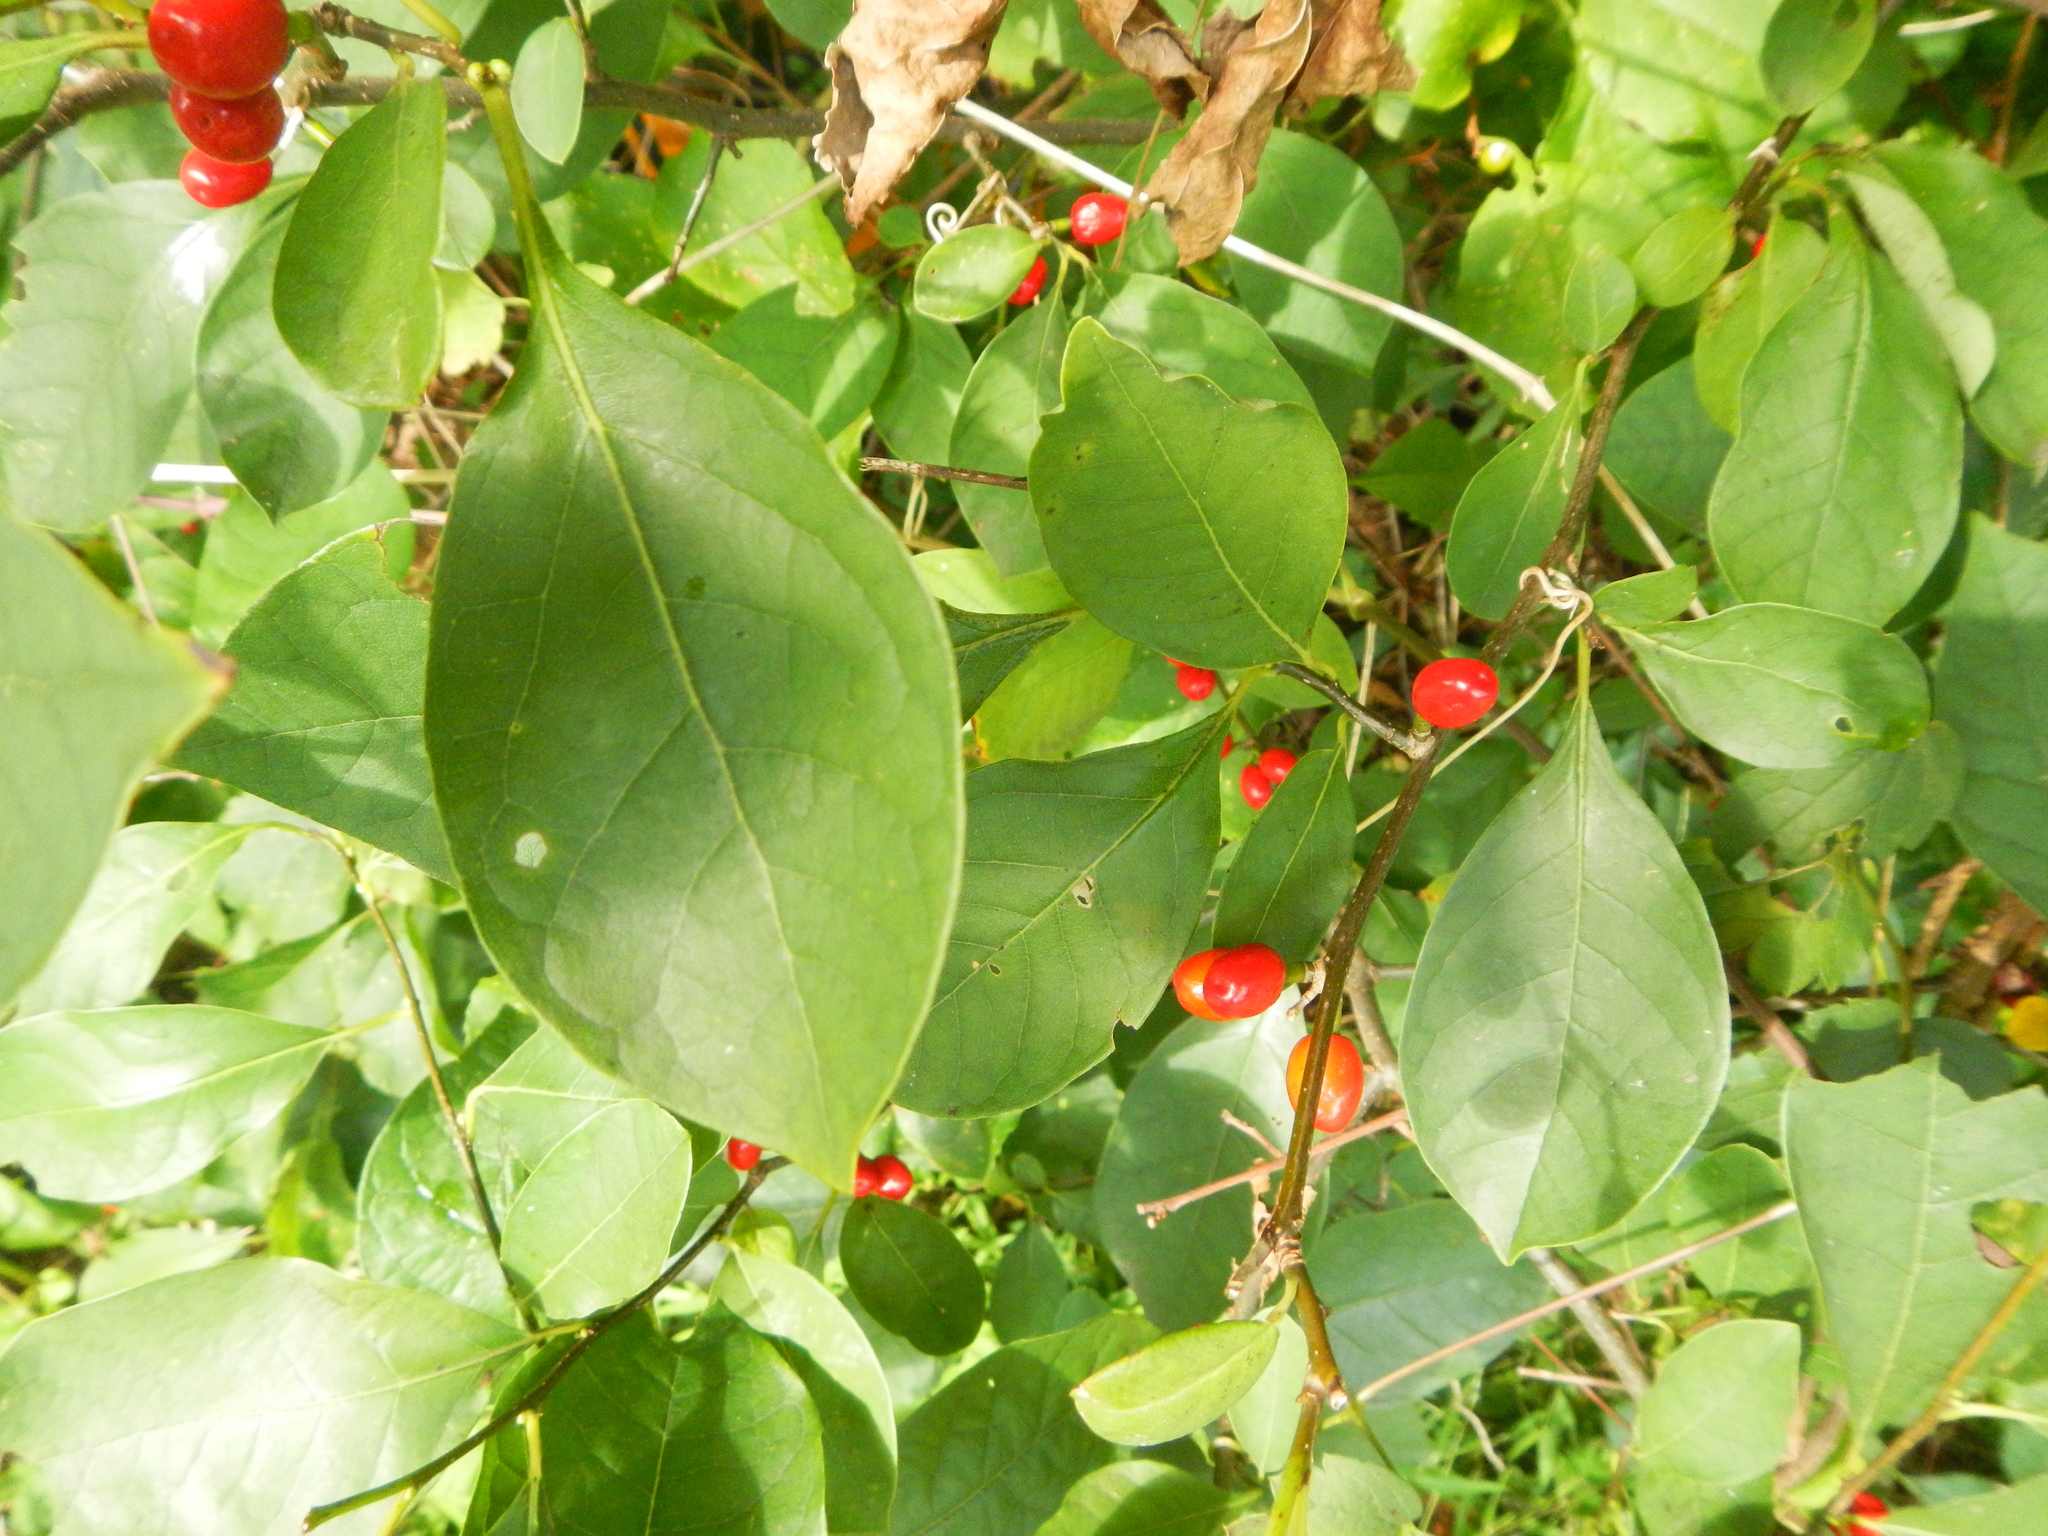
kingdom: Plantae
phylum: Tracheophyta
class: Magnoliopsida
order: Laurales
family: Lauraceae
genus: Lindera
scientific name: Lindera benzoin
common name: Spicebush
